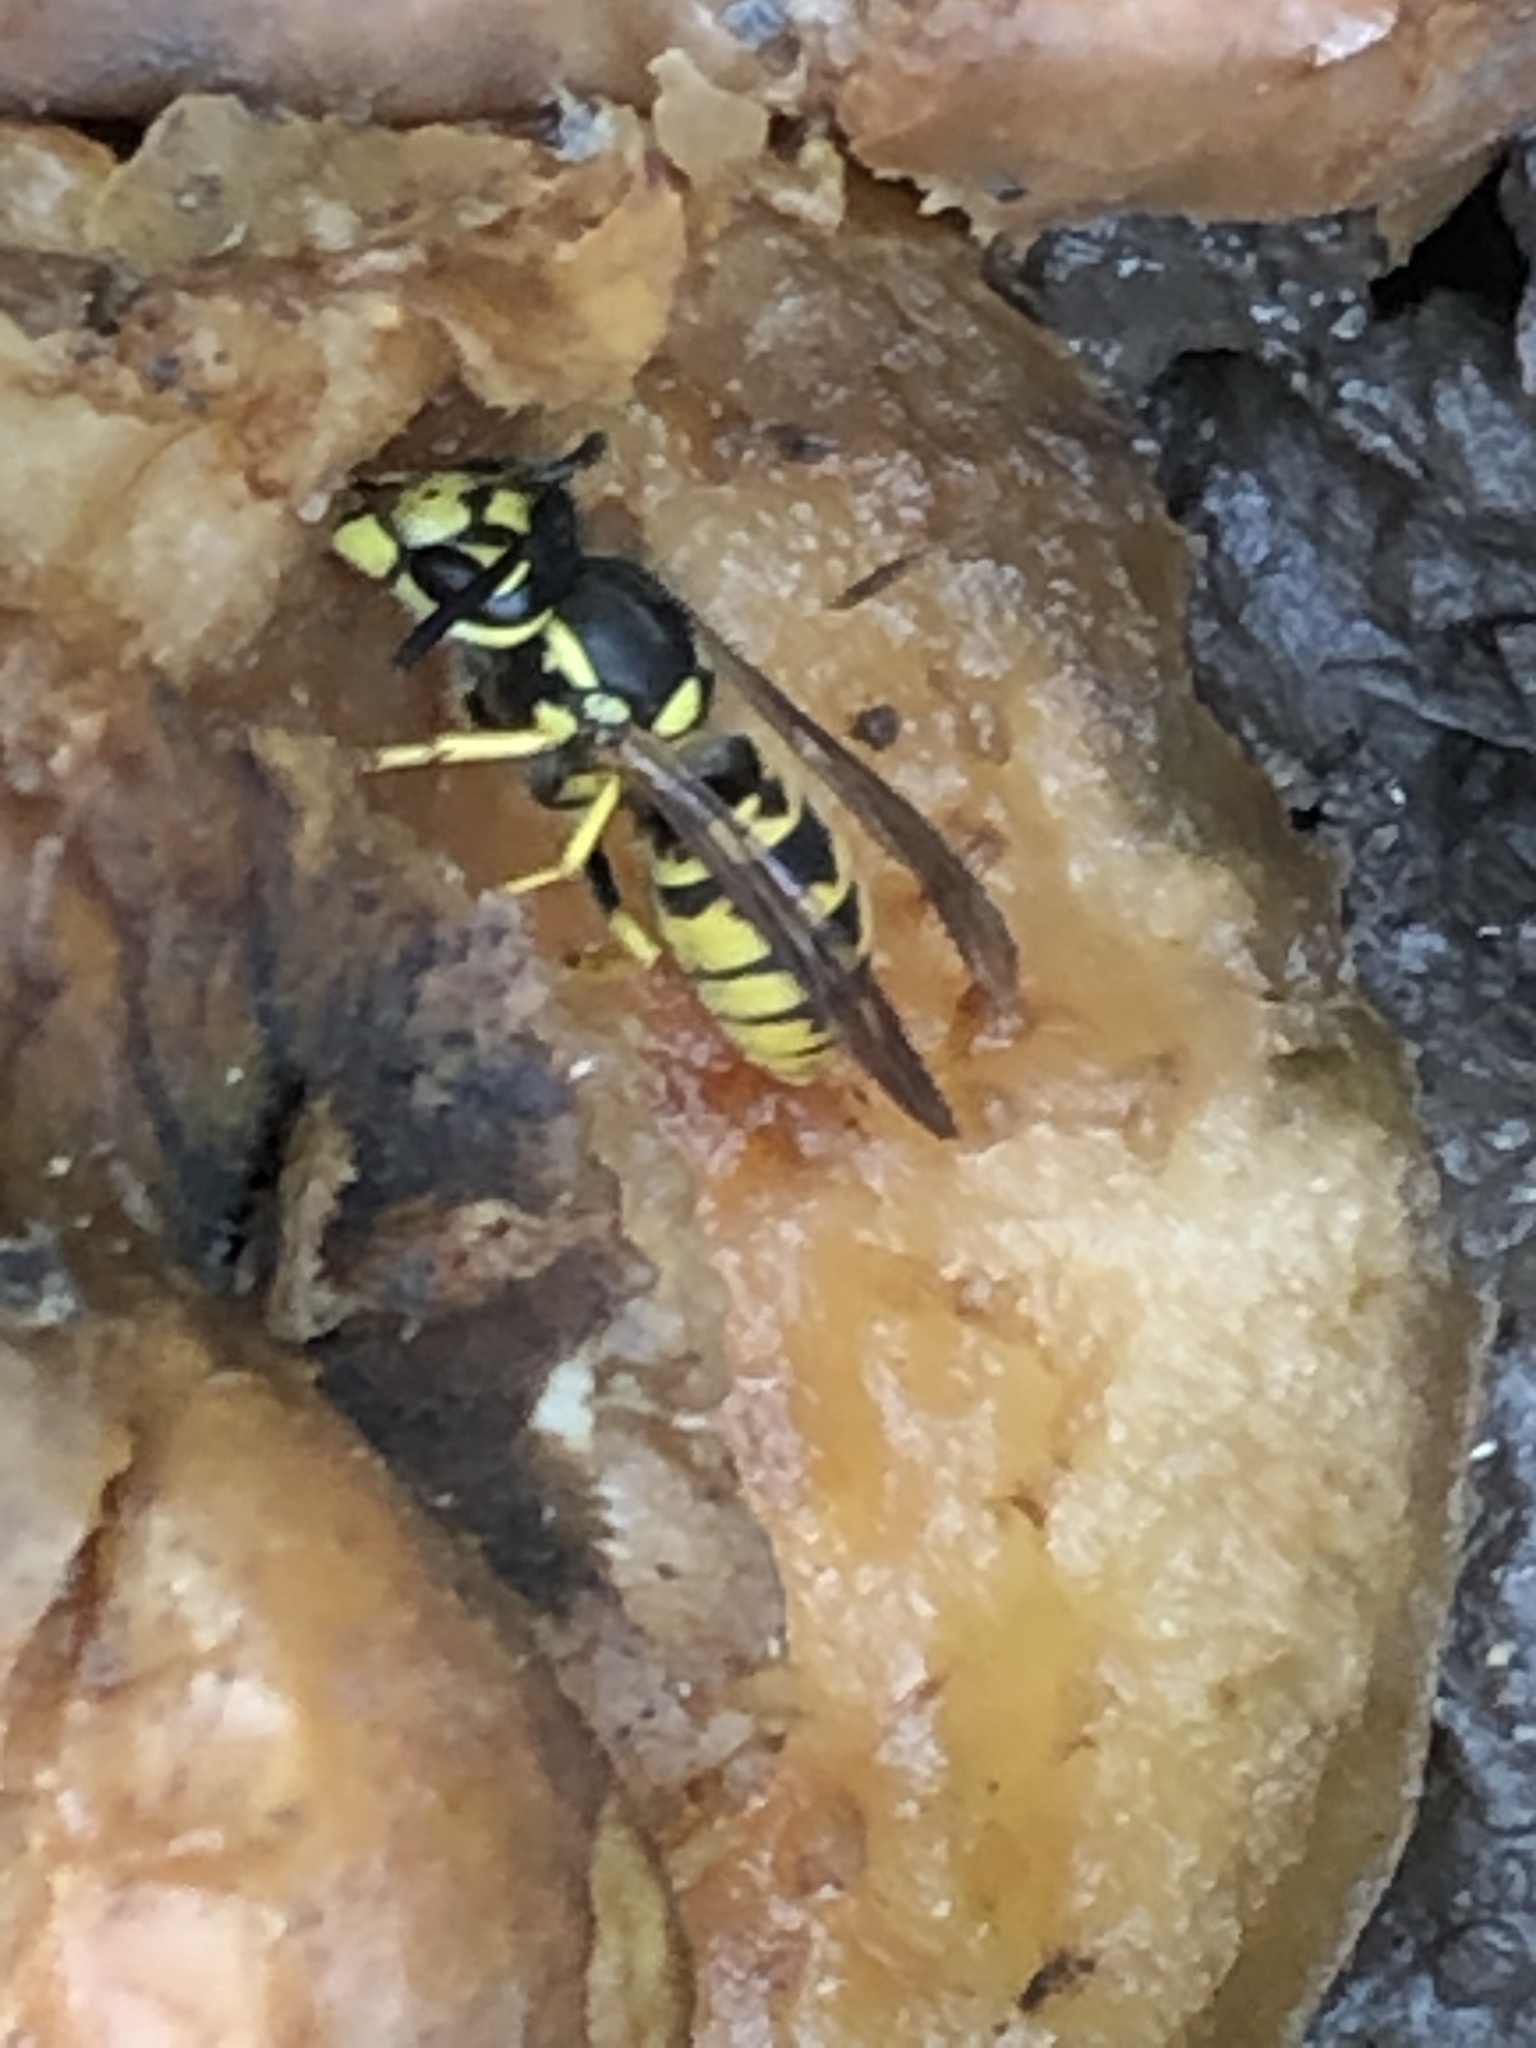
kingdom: Animalia
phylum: Arthropoda
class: Insecta
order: Hymenoptera
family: Vespidae
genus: Vespula
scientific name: Vespula germanica
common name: German wasp
